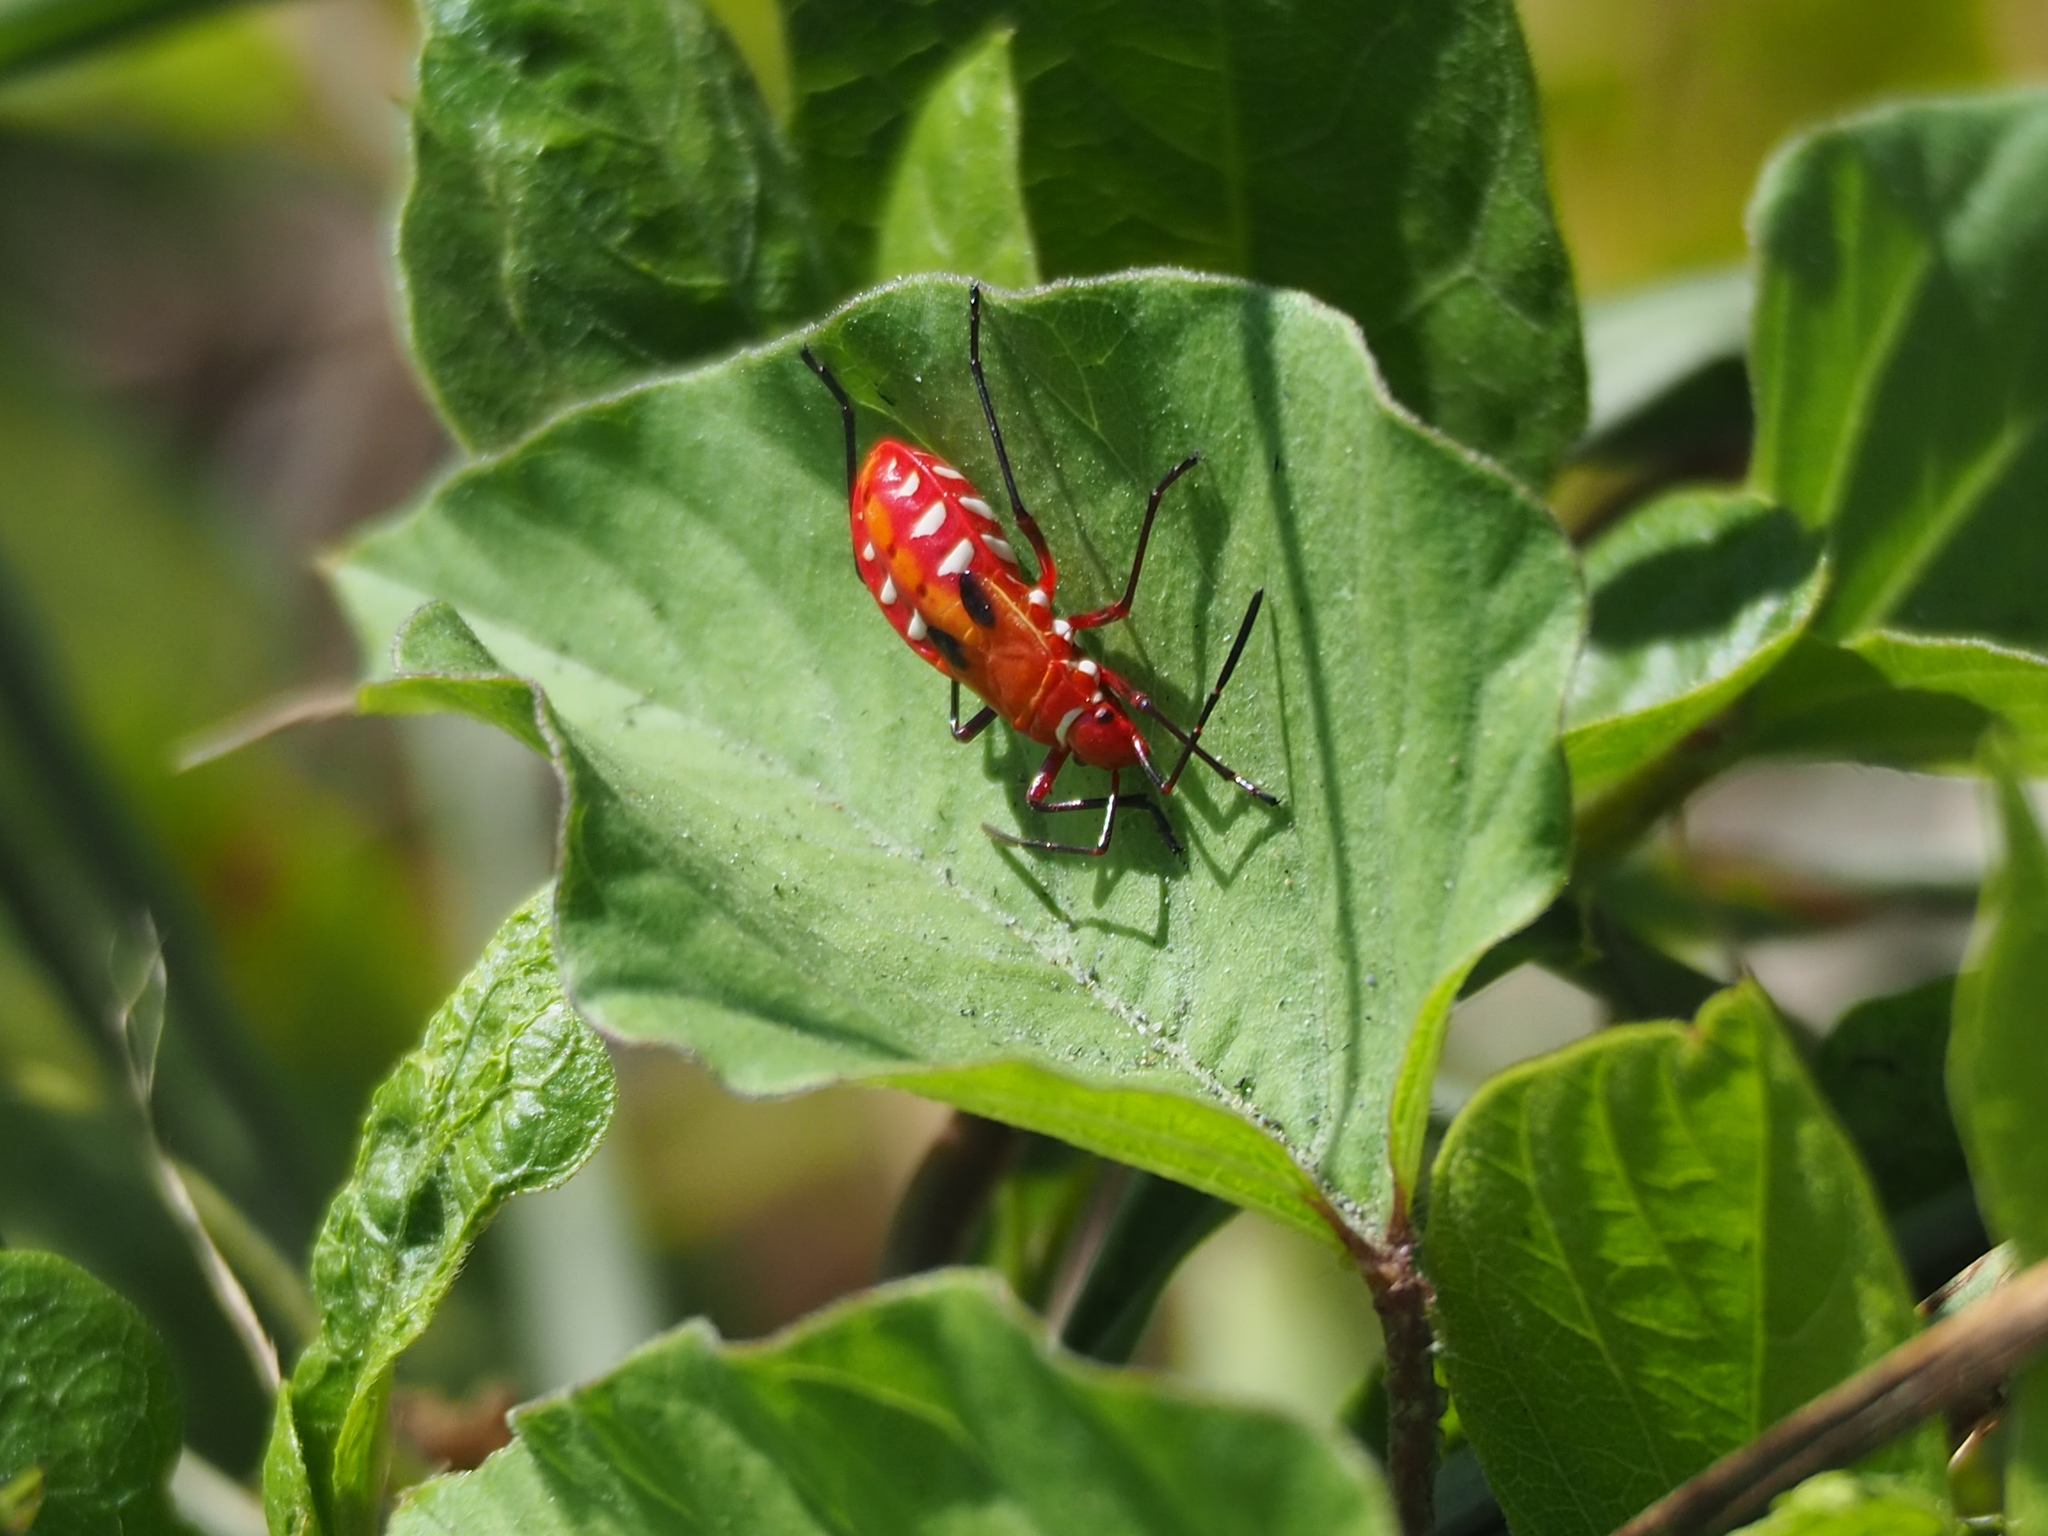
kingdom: Animalia
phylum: Arthropoda
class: Insecta
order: Hemiptera
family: Pyrrhocoridae
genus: Dysdercus
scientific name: Dysdercus cingulatus
